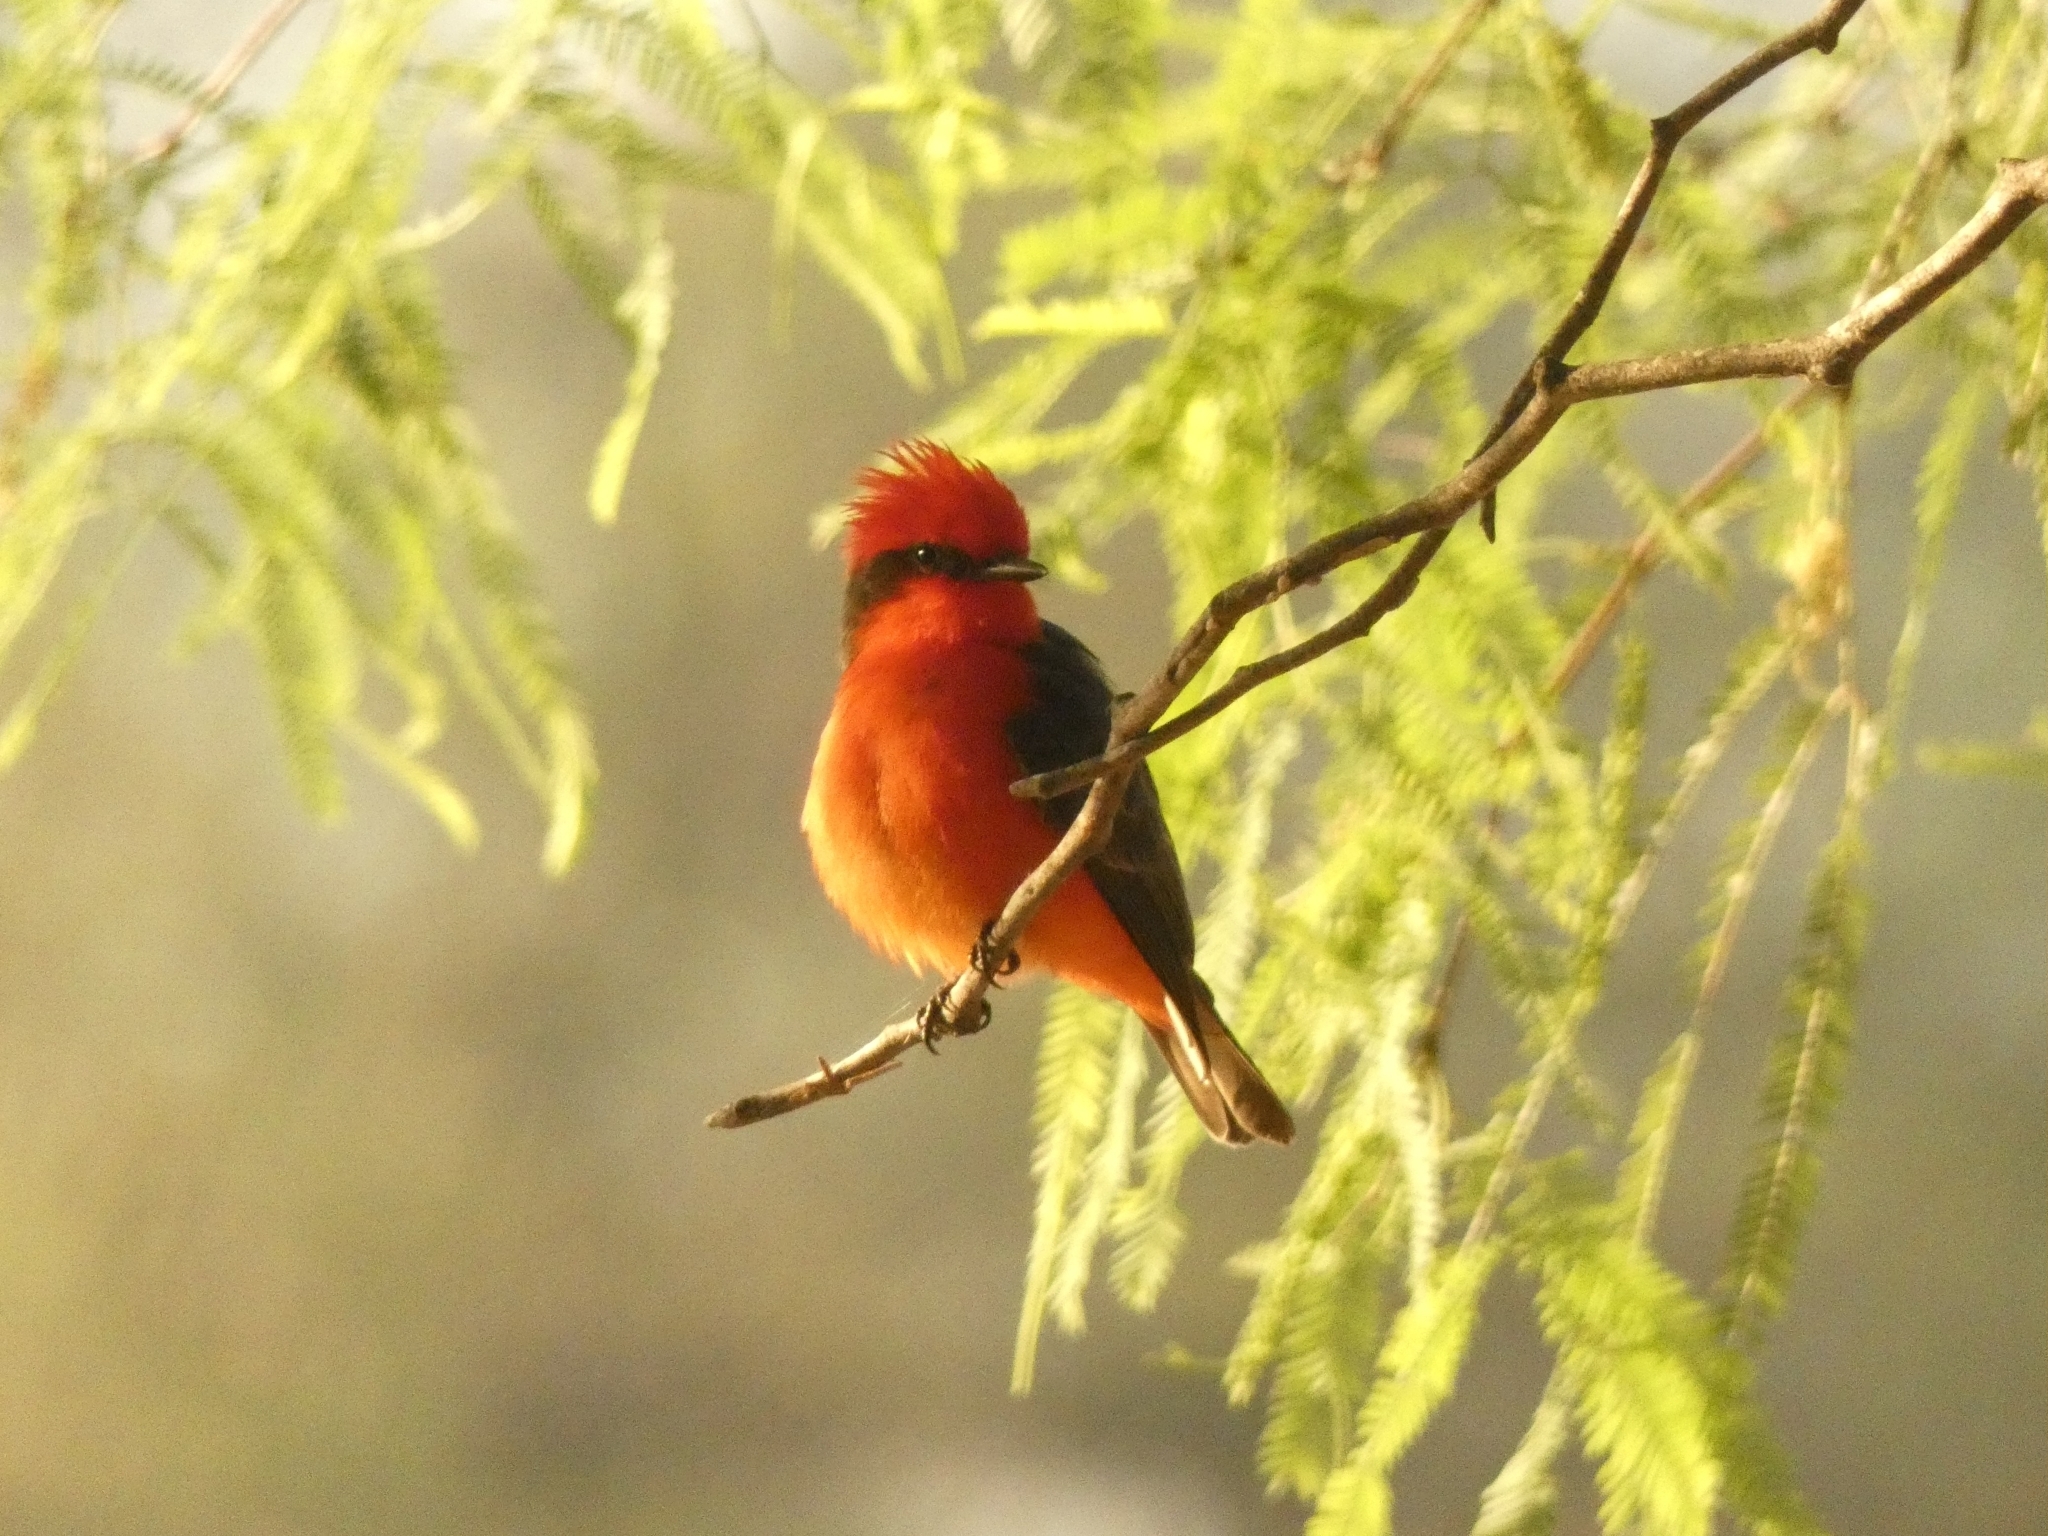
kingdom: Animalia
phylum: Chordata
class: Aves
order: Passeriformes
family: Tyrannidae
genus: Pyrocephalus
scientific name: Pyrocephalus rubinus
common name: Vermilion flycatcher
